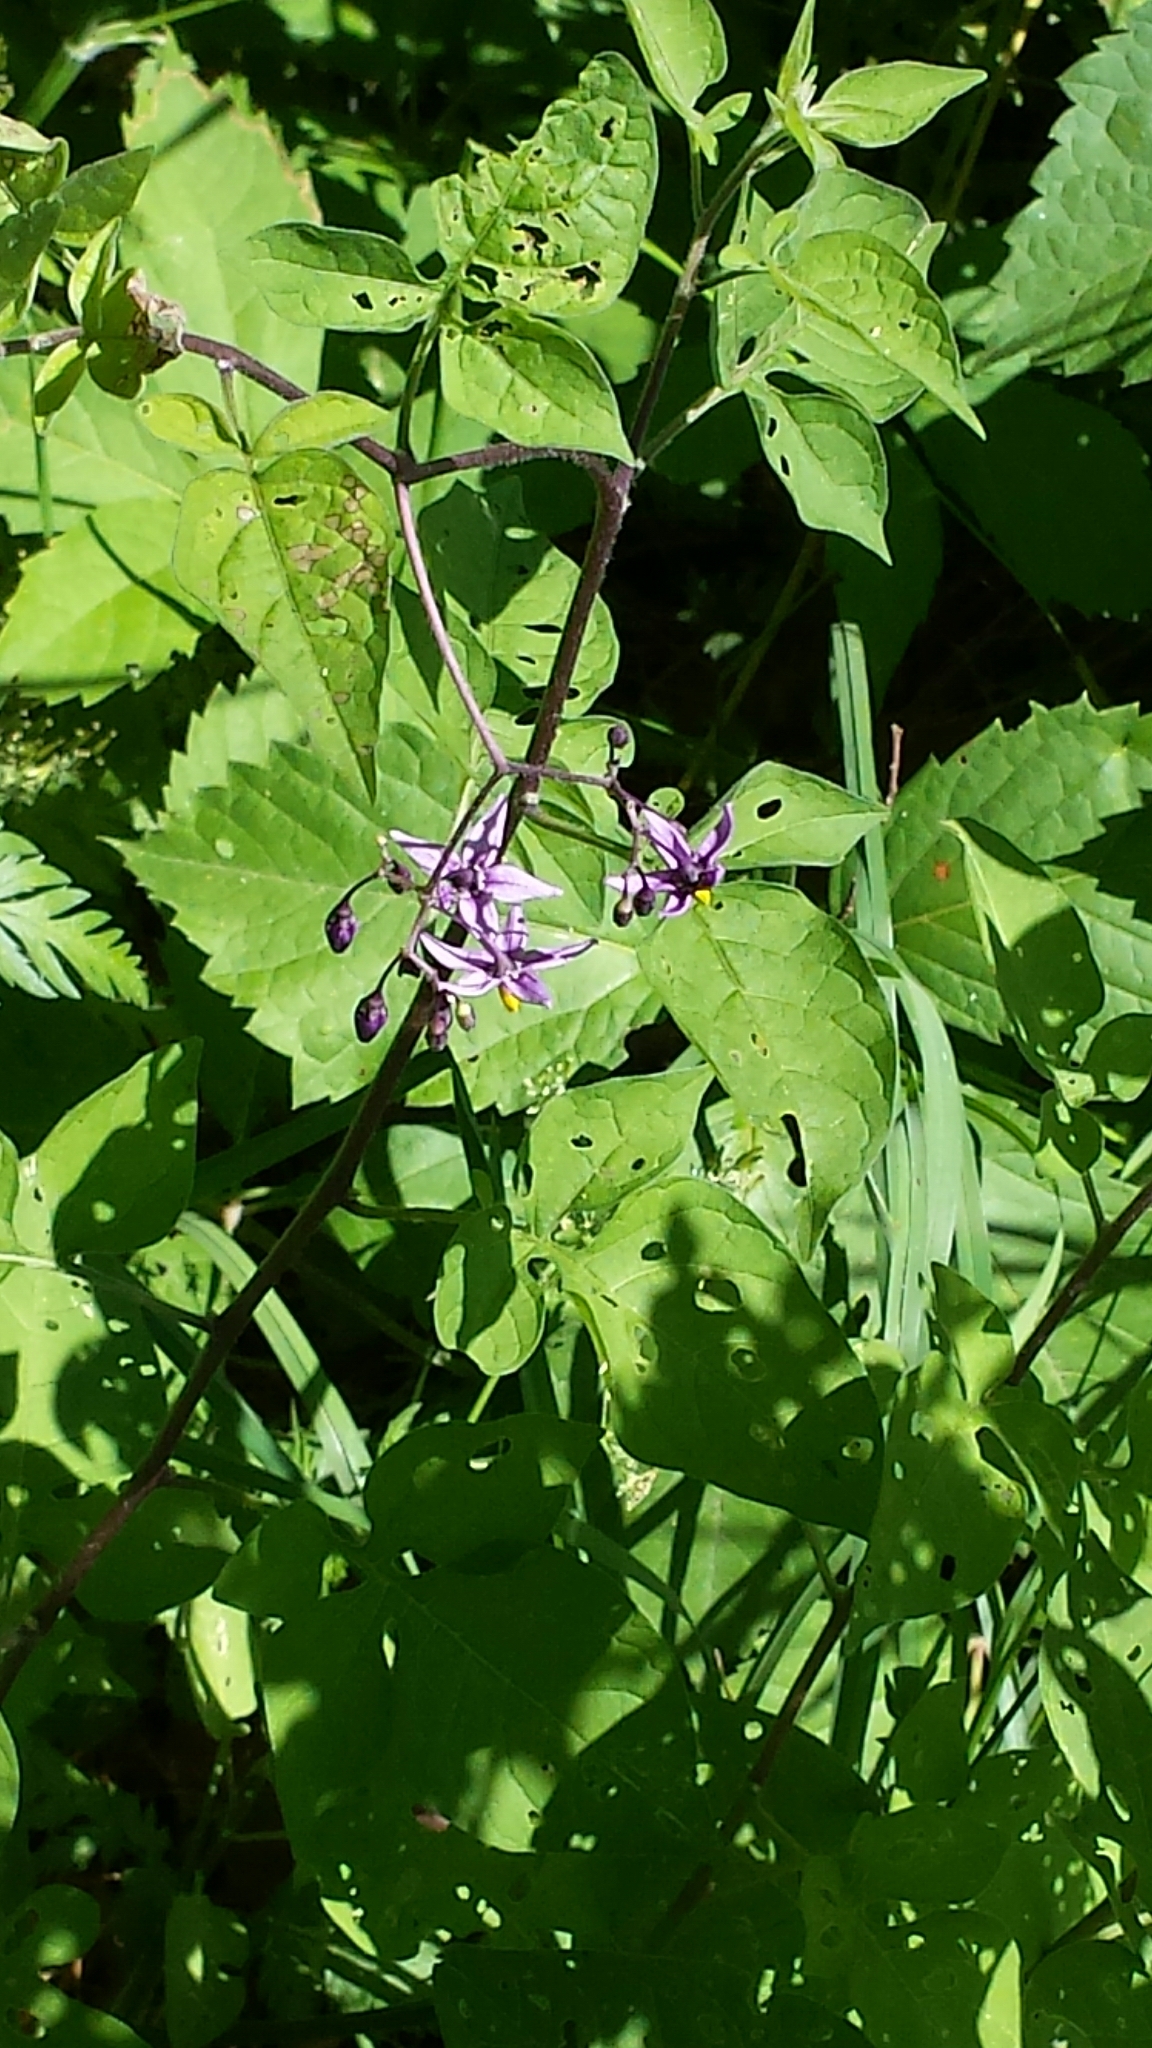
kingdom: Plantae
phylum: Tracheophyta
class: Magnoliopsida
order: Solanales
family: Solanaceae
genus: Solanum
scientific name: Solanum dulcamara
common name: Climbing nightshade
